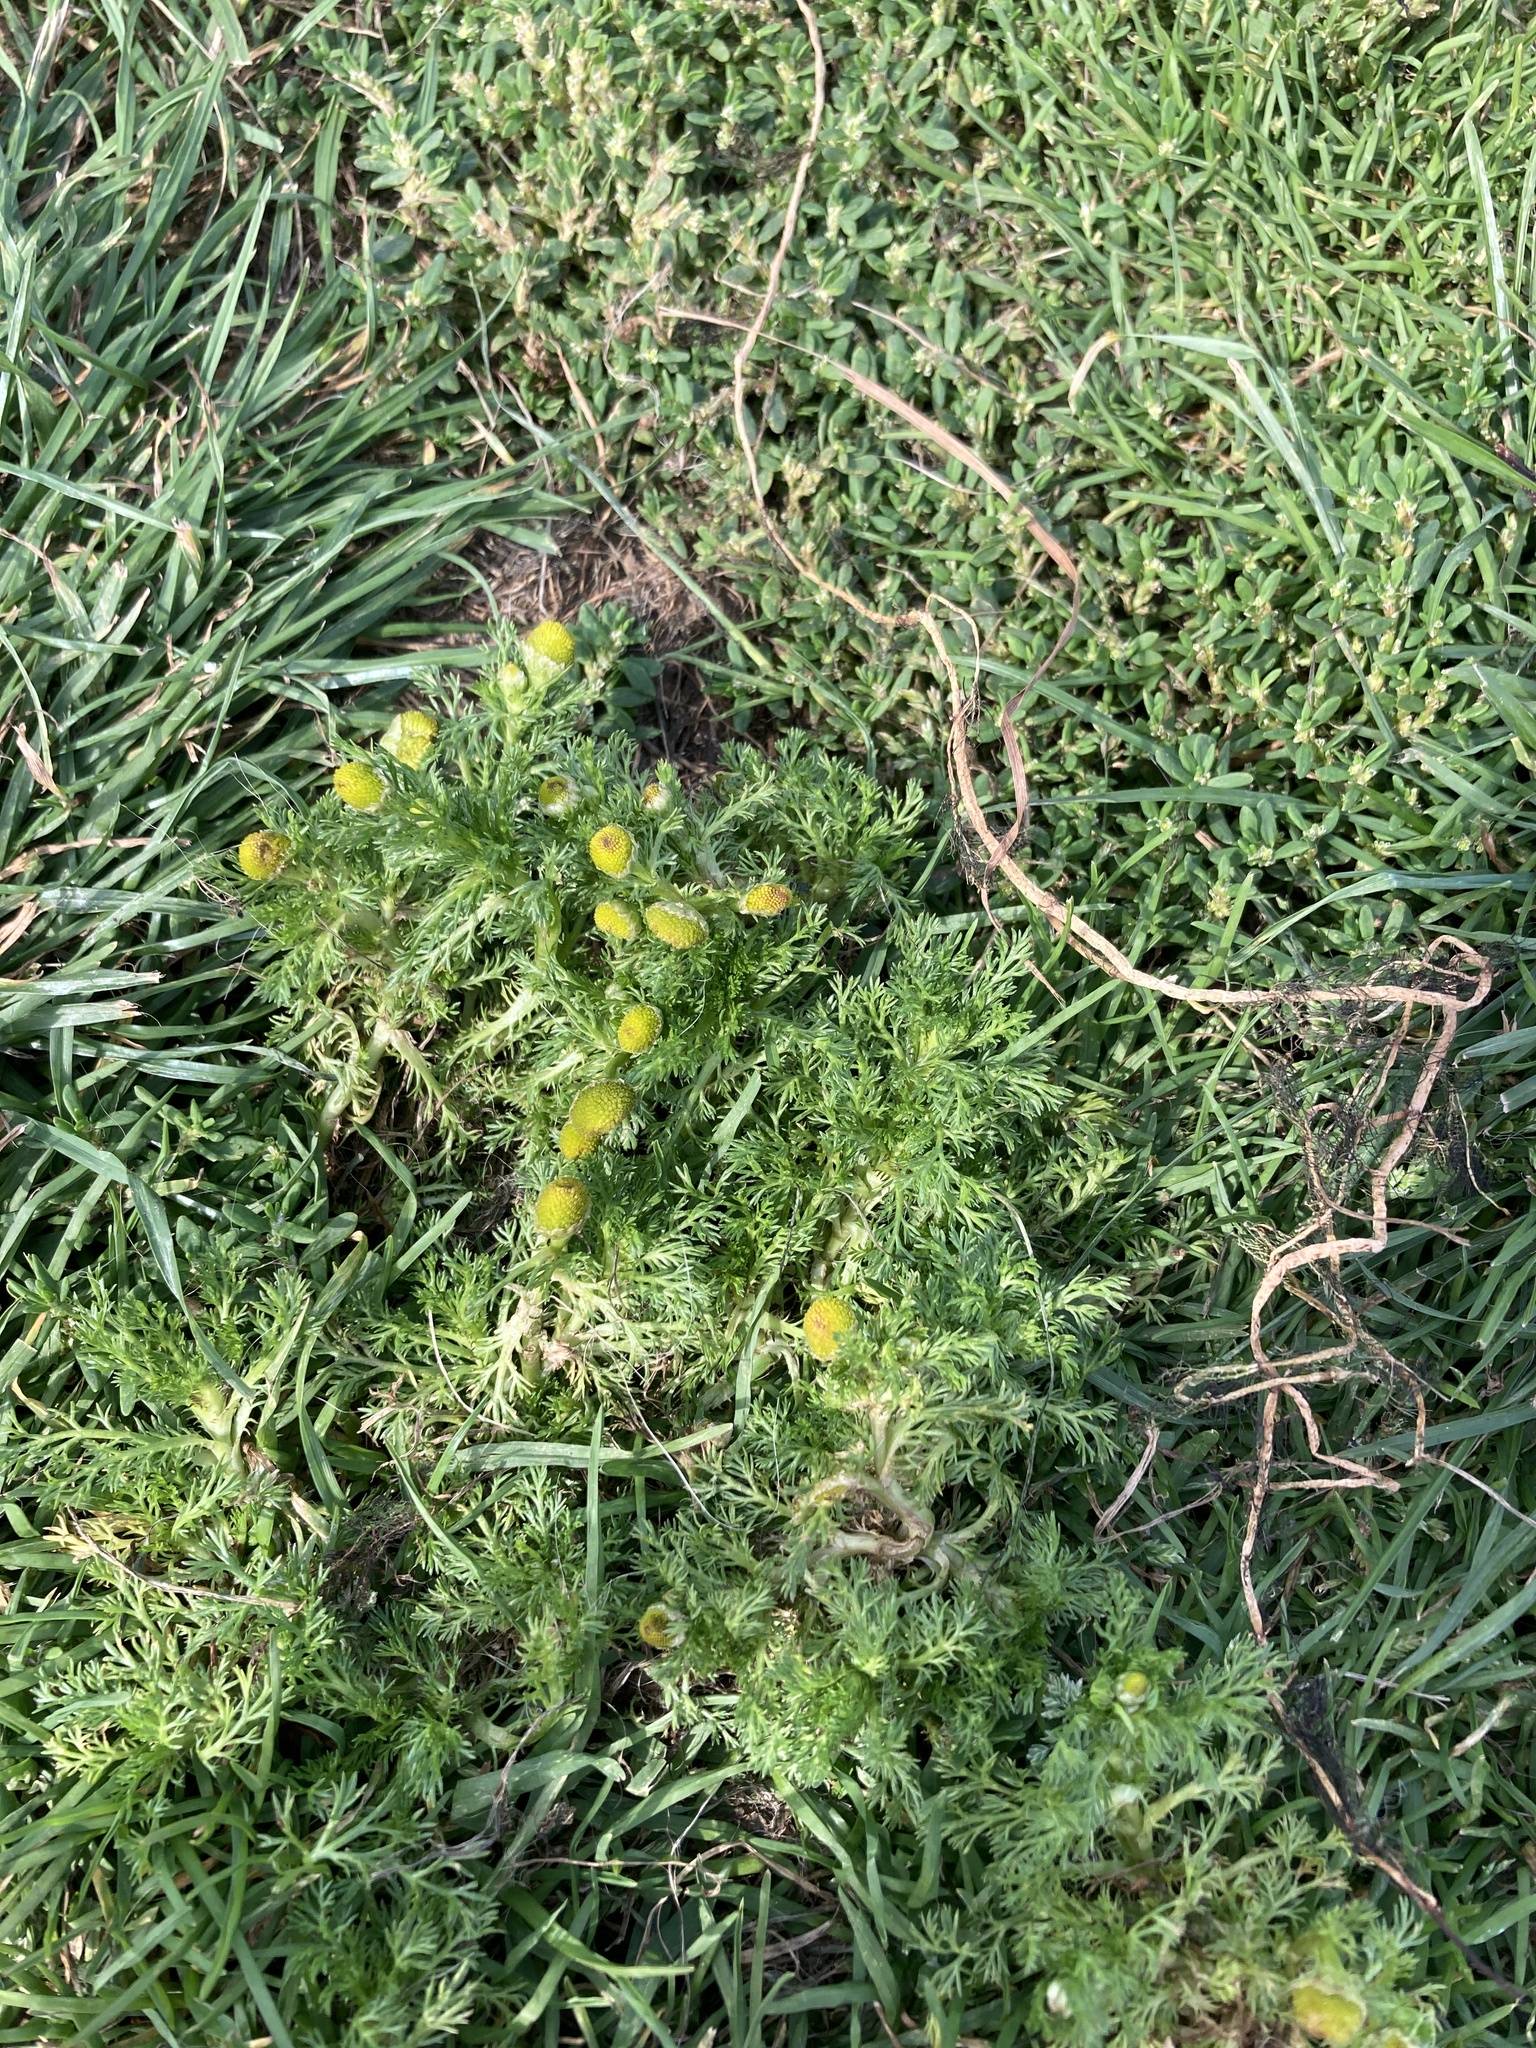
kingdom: Plantae
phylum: Tracheophyta
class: Magnoliopsida
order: Asterales
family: Asteraceae
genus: Matricaria
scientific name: Matricaria discoidea
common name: Disc mayweed
